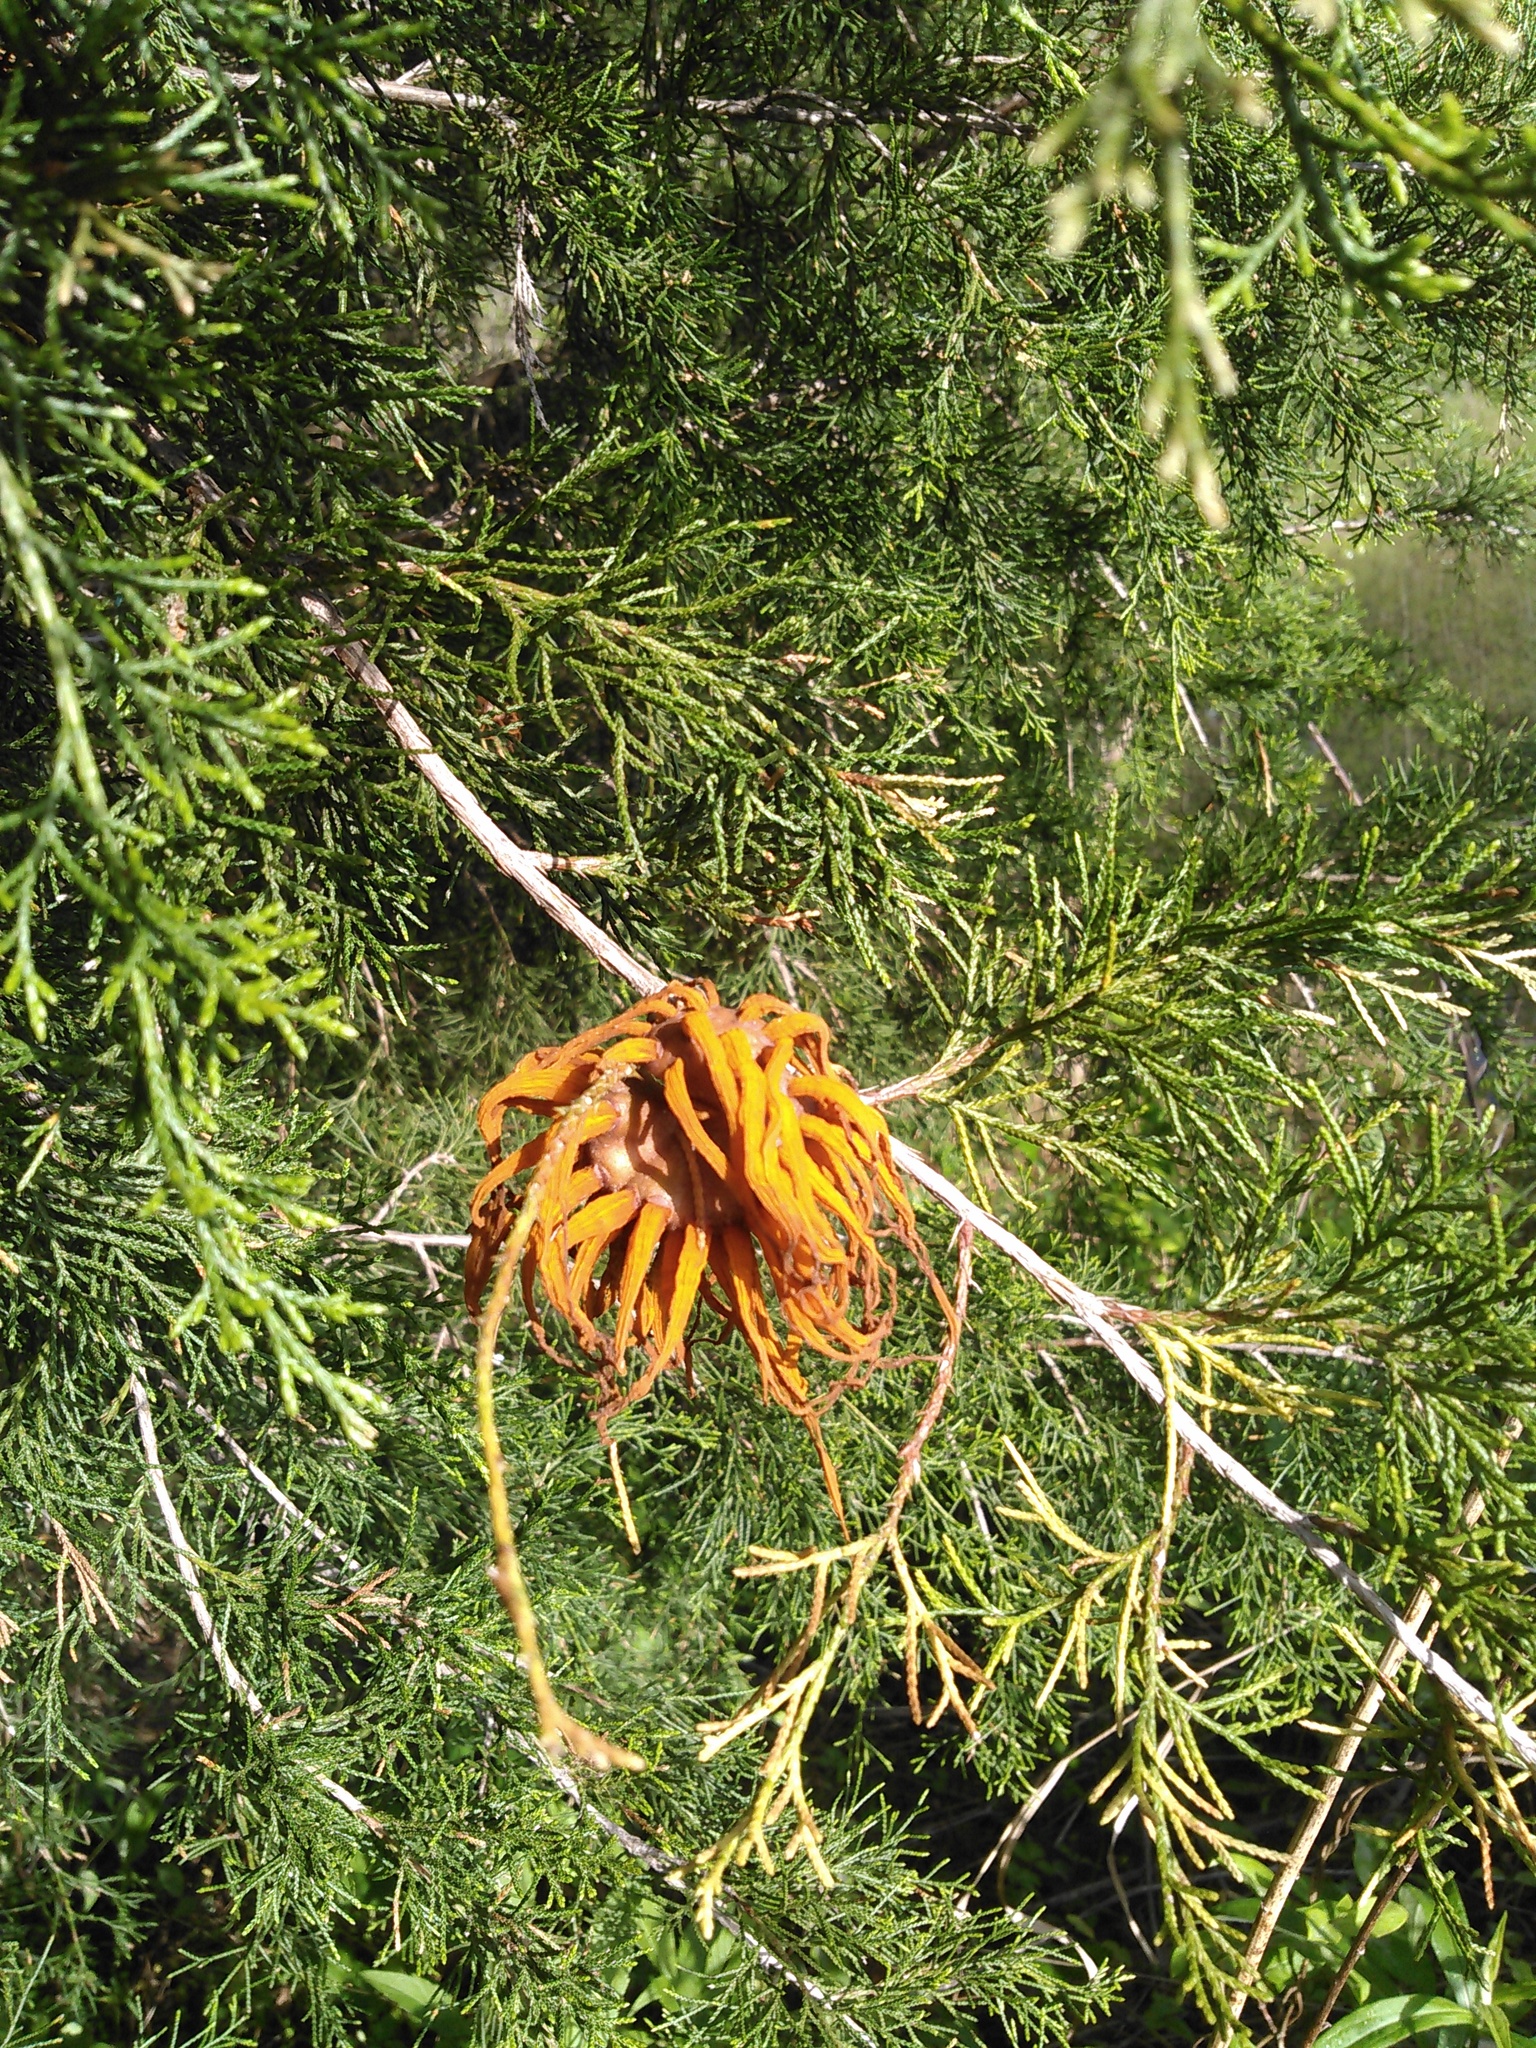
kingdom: Fungi
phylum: Basidiomycota
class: Pucciniomycetes
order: Pucciniales
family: Gymnosporangiaceae
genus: Gymnosporangium
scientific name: Gymnosporangium juniperi-virginianae
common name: Juniper-apple rust
